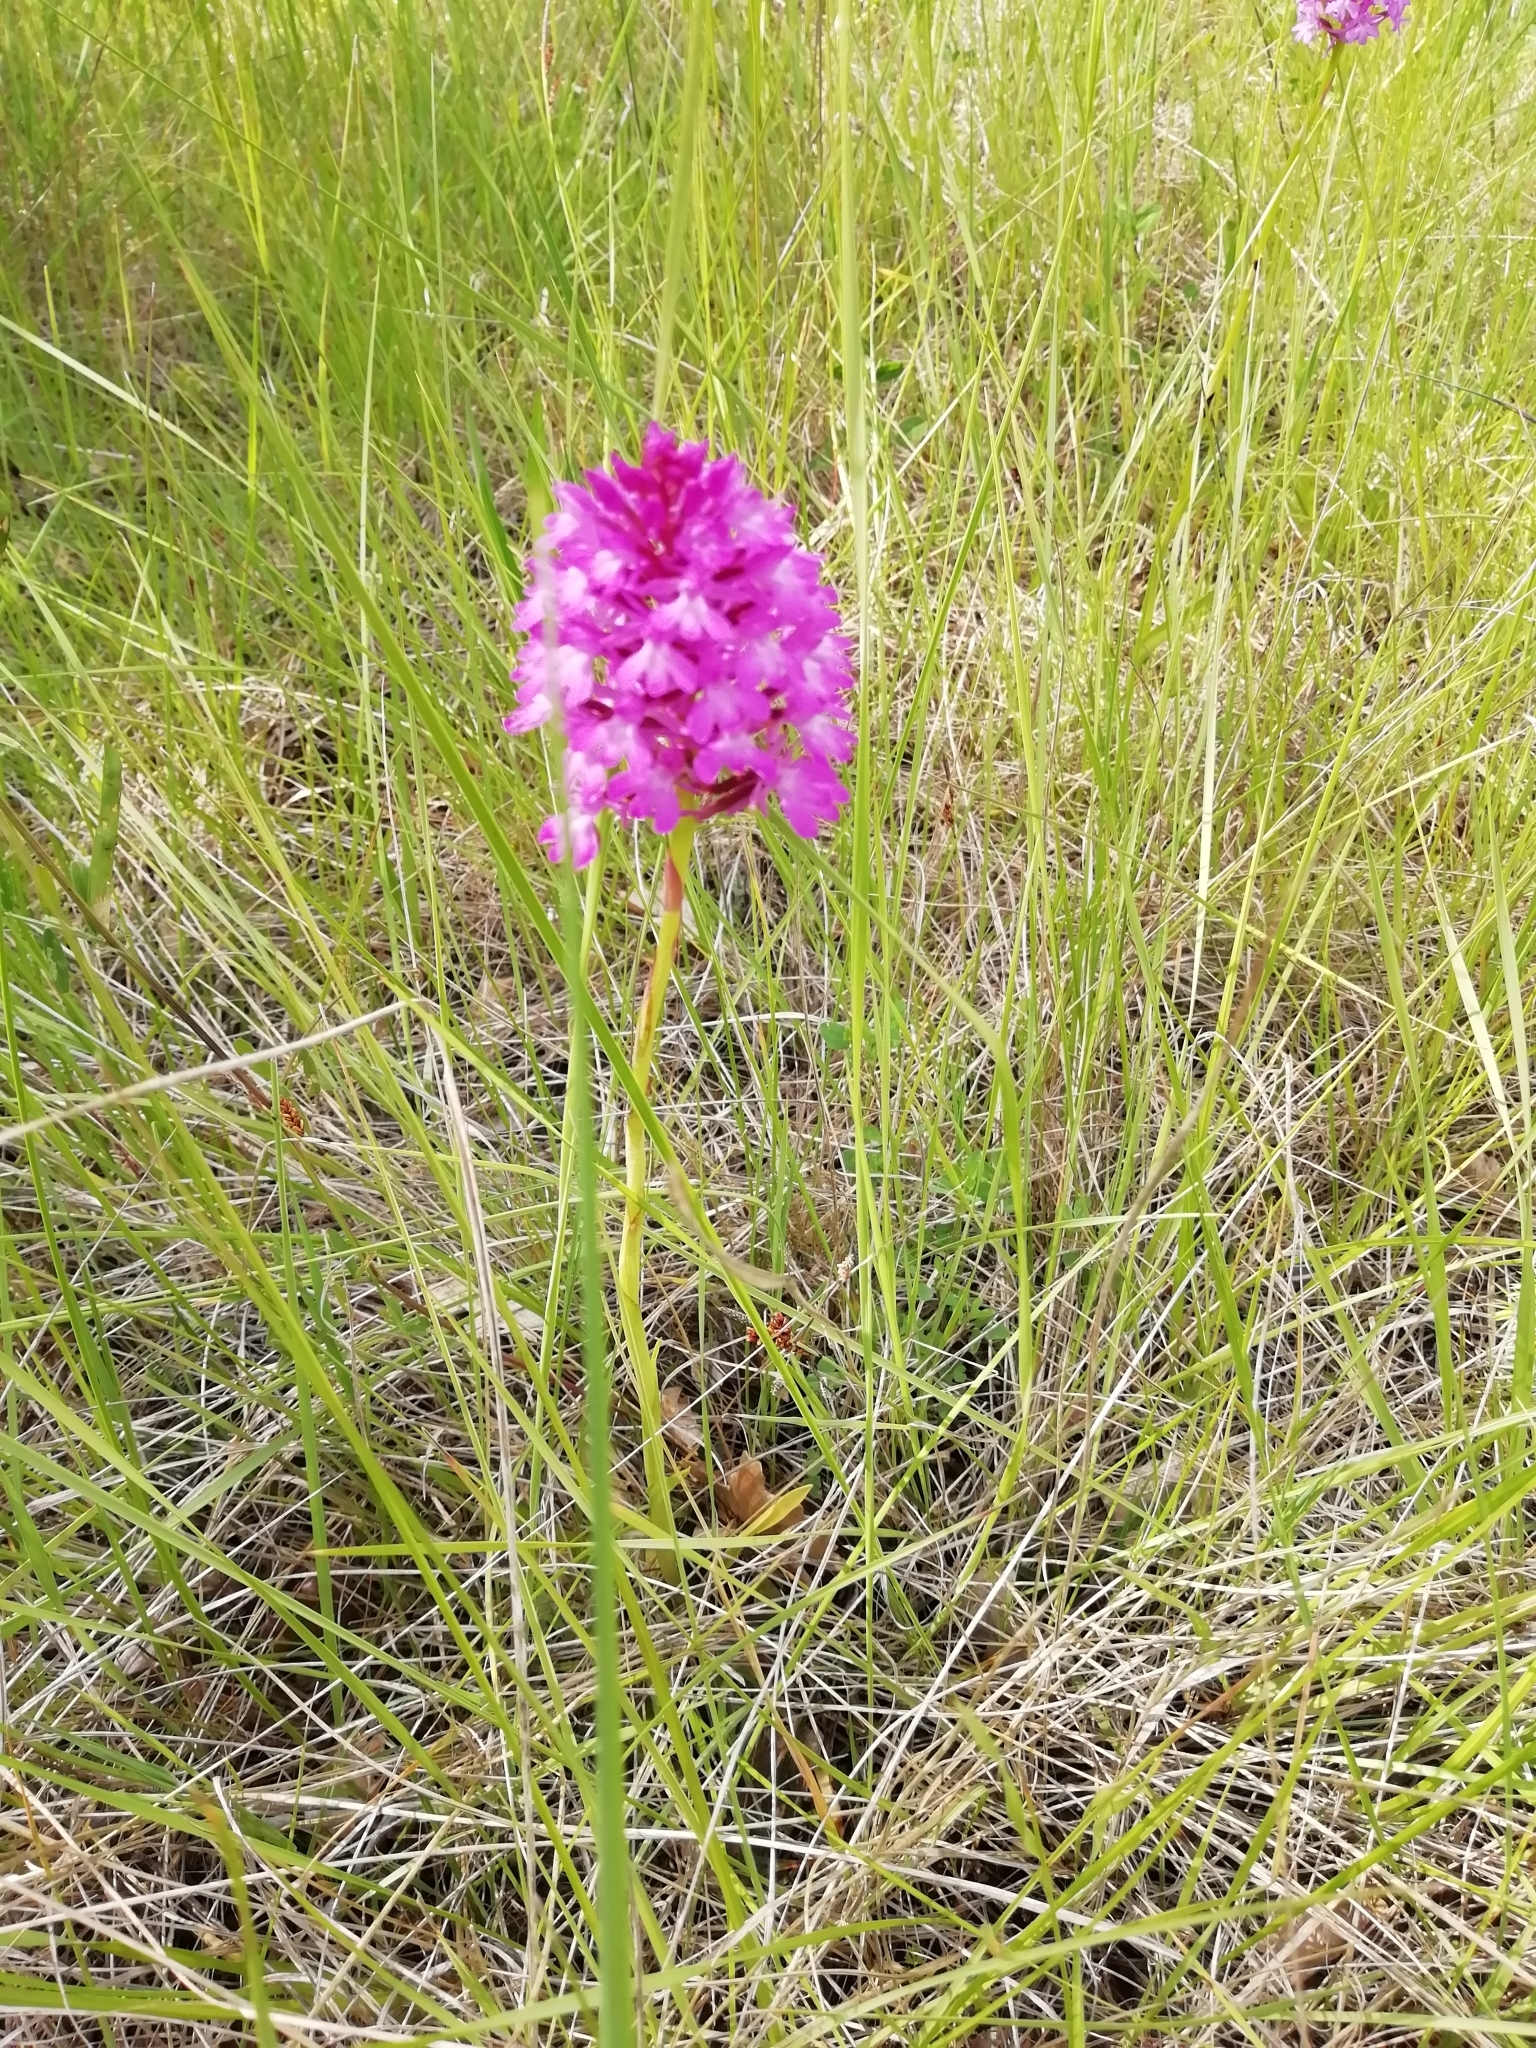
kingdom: Plantae
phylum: Tracheophyta
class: Liliopsida
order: Asparagales
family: Orchidaceae
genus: Anacamptis
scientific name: Anacamptis pyramidalis
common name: Pyramidal orchid
